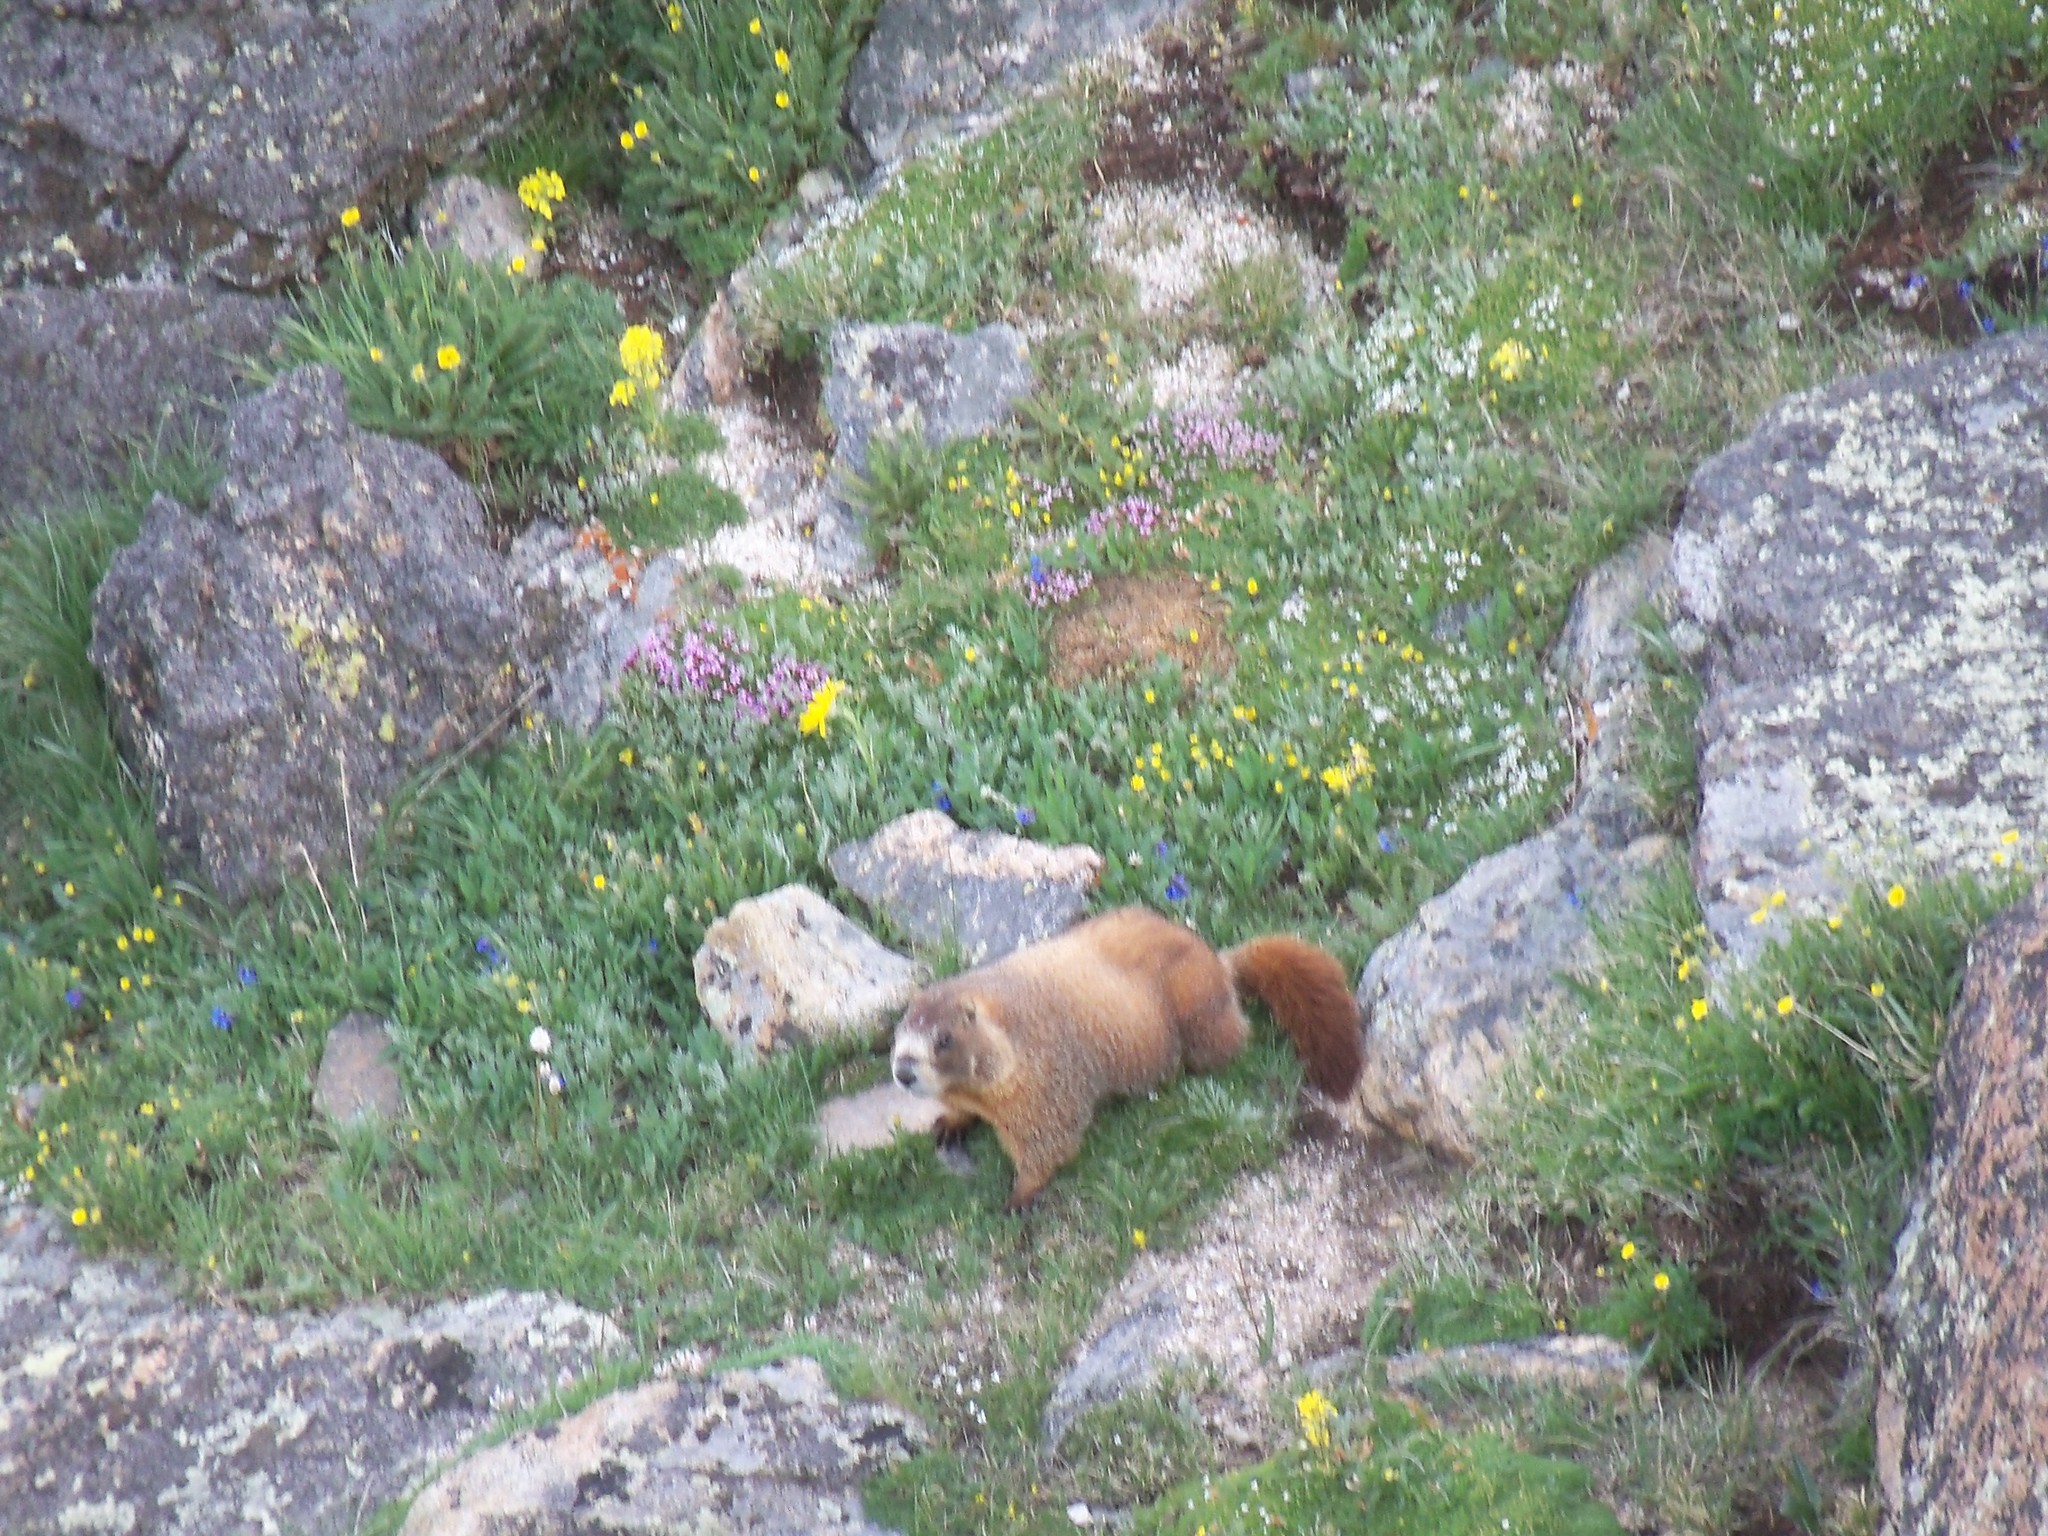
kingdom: Animalia
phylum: Chordata
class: Mammalia
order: Rodentia
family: Sciuridae
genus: Marmota
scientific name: Marmota flaviventris
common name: Yellow-bellied marmot
